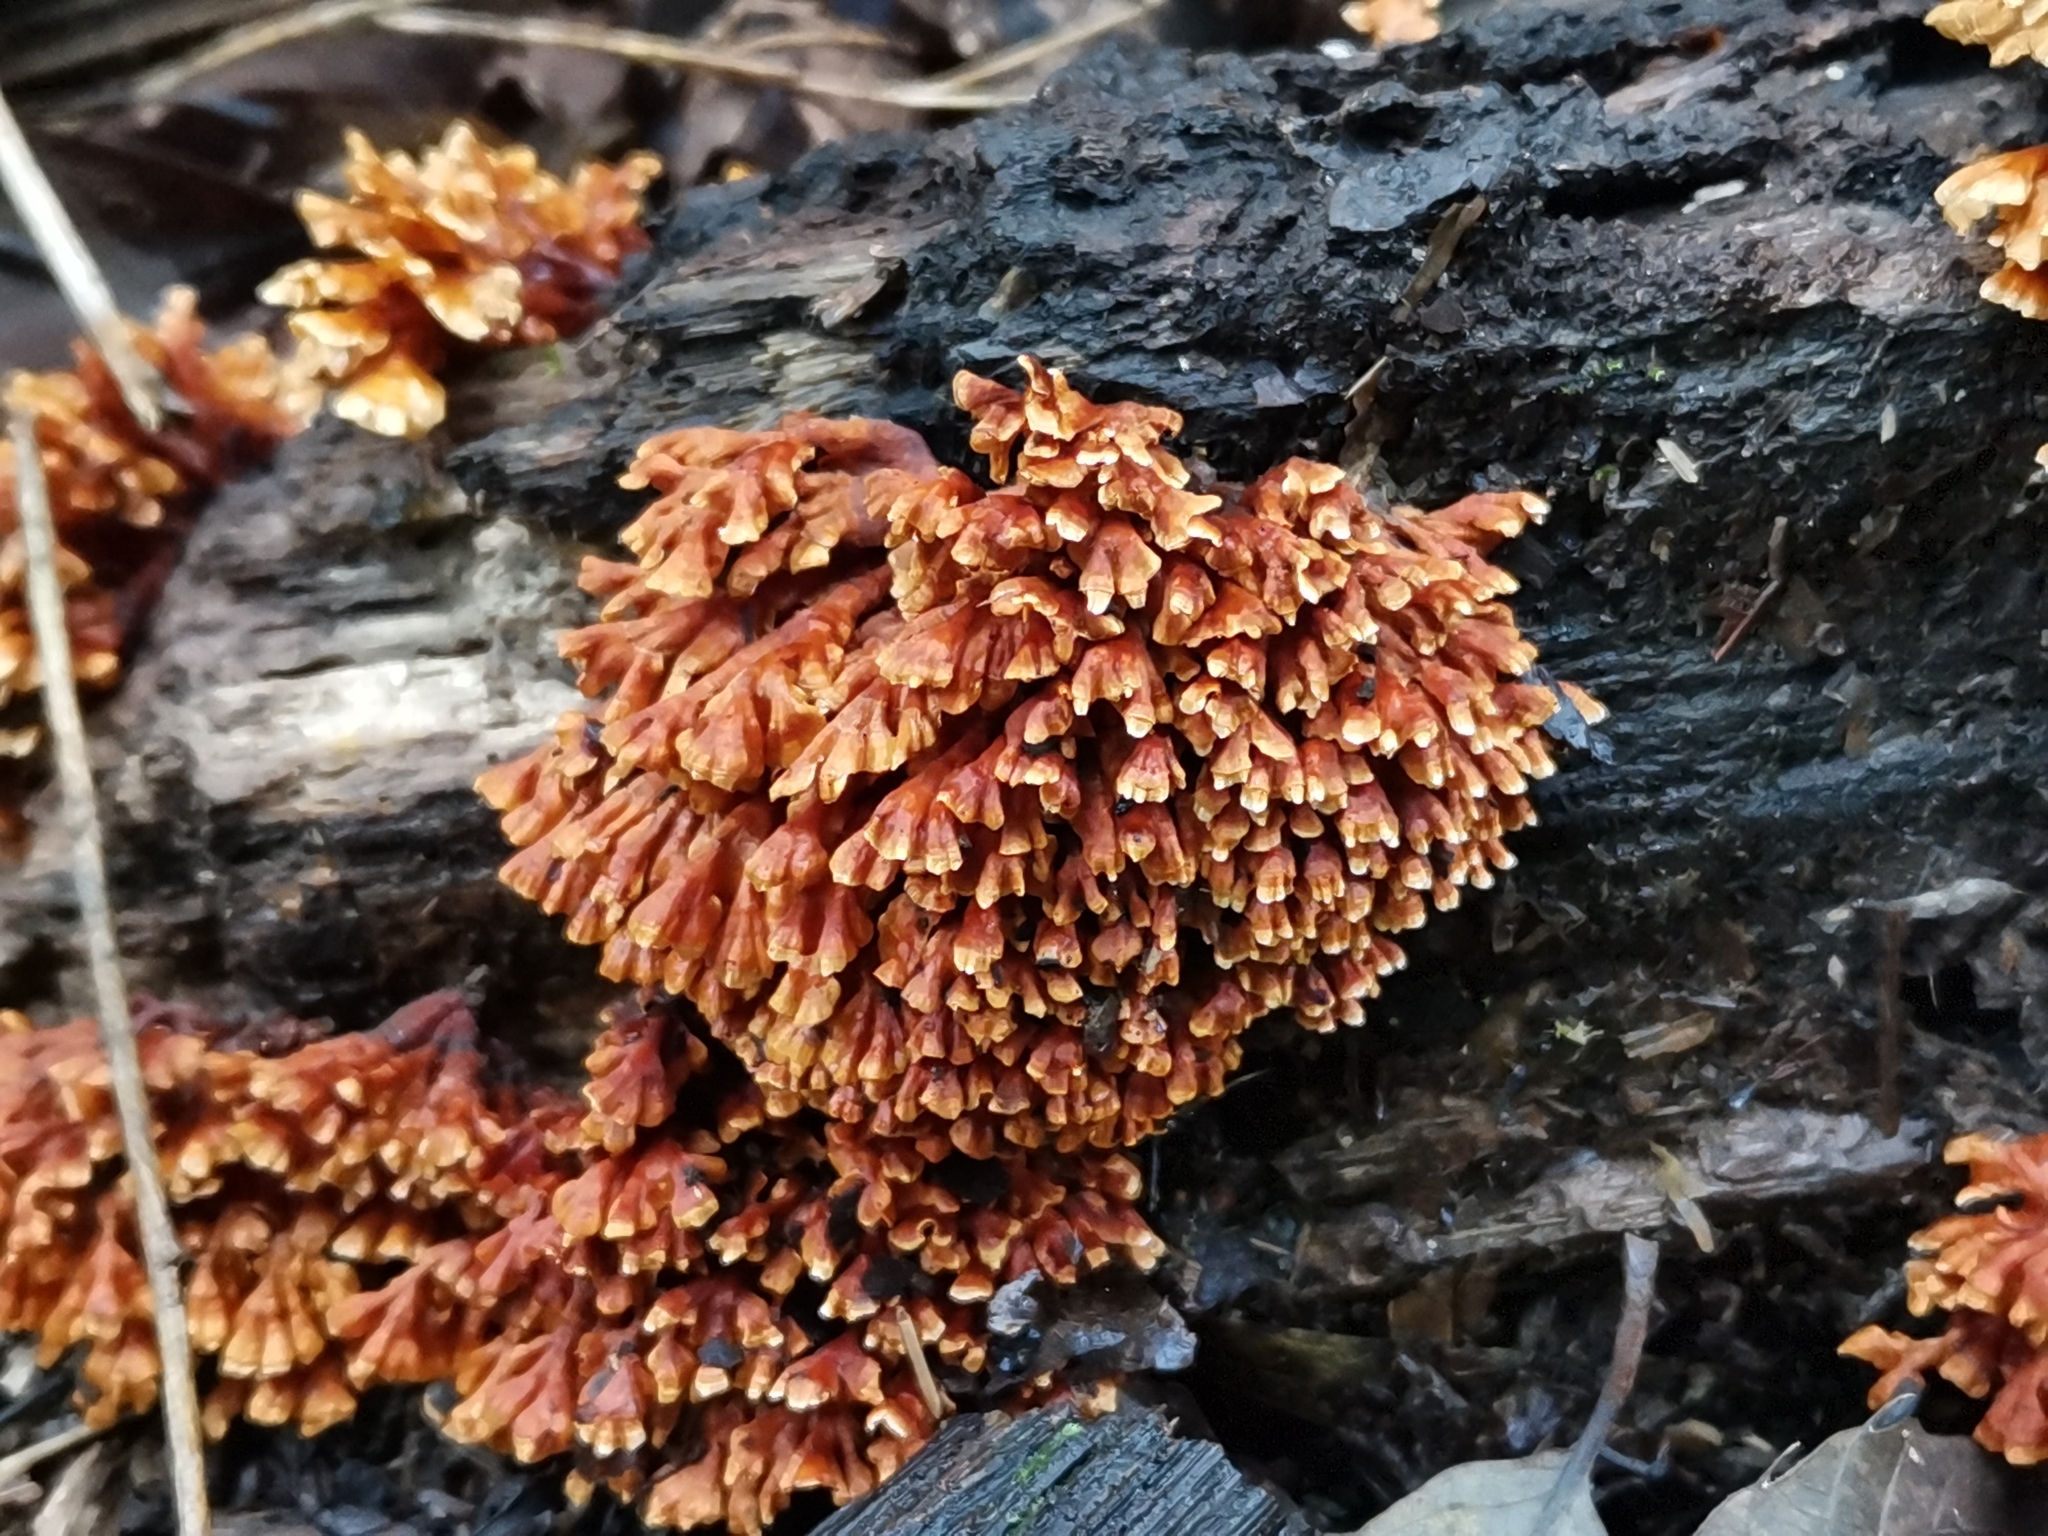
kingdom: Fungi
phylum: Basidiomycota
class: Agaricomycetes
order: Russulales
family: Stereaceae
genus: Xylobolus
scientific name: Xylobolus spectabilis
